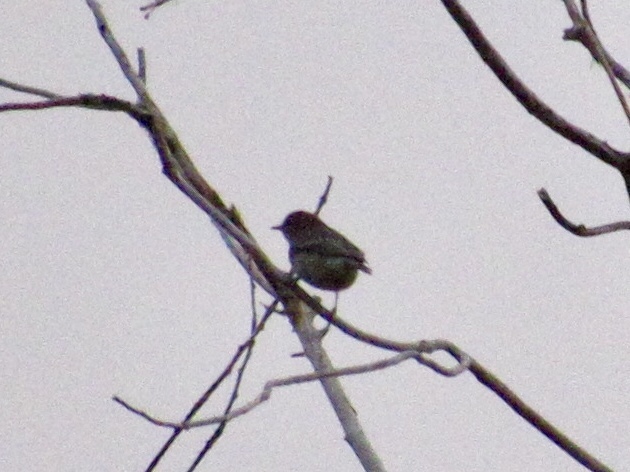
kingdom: Animalia
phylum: Chordata
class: Aves
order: Passeriformes
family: Parulidae
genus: Setophaga
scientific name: Setophaga coronata
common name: Myrtle warbler
